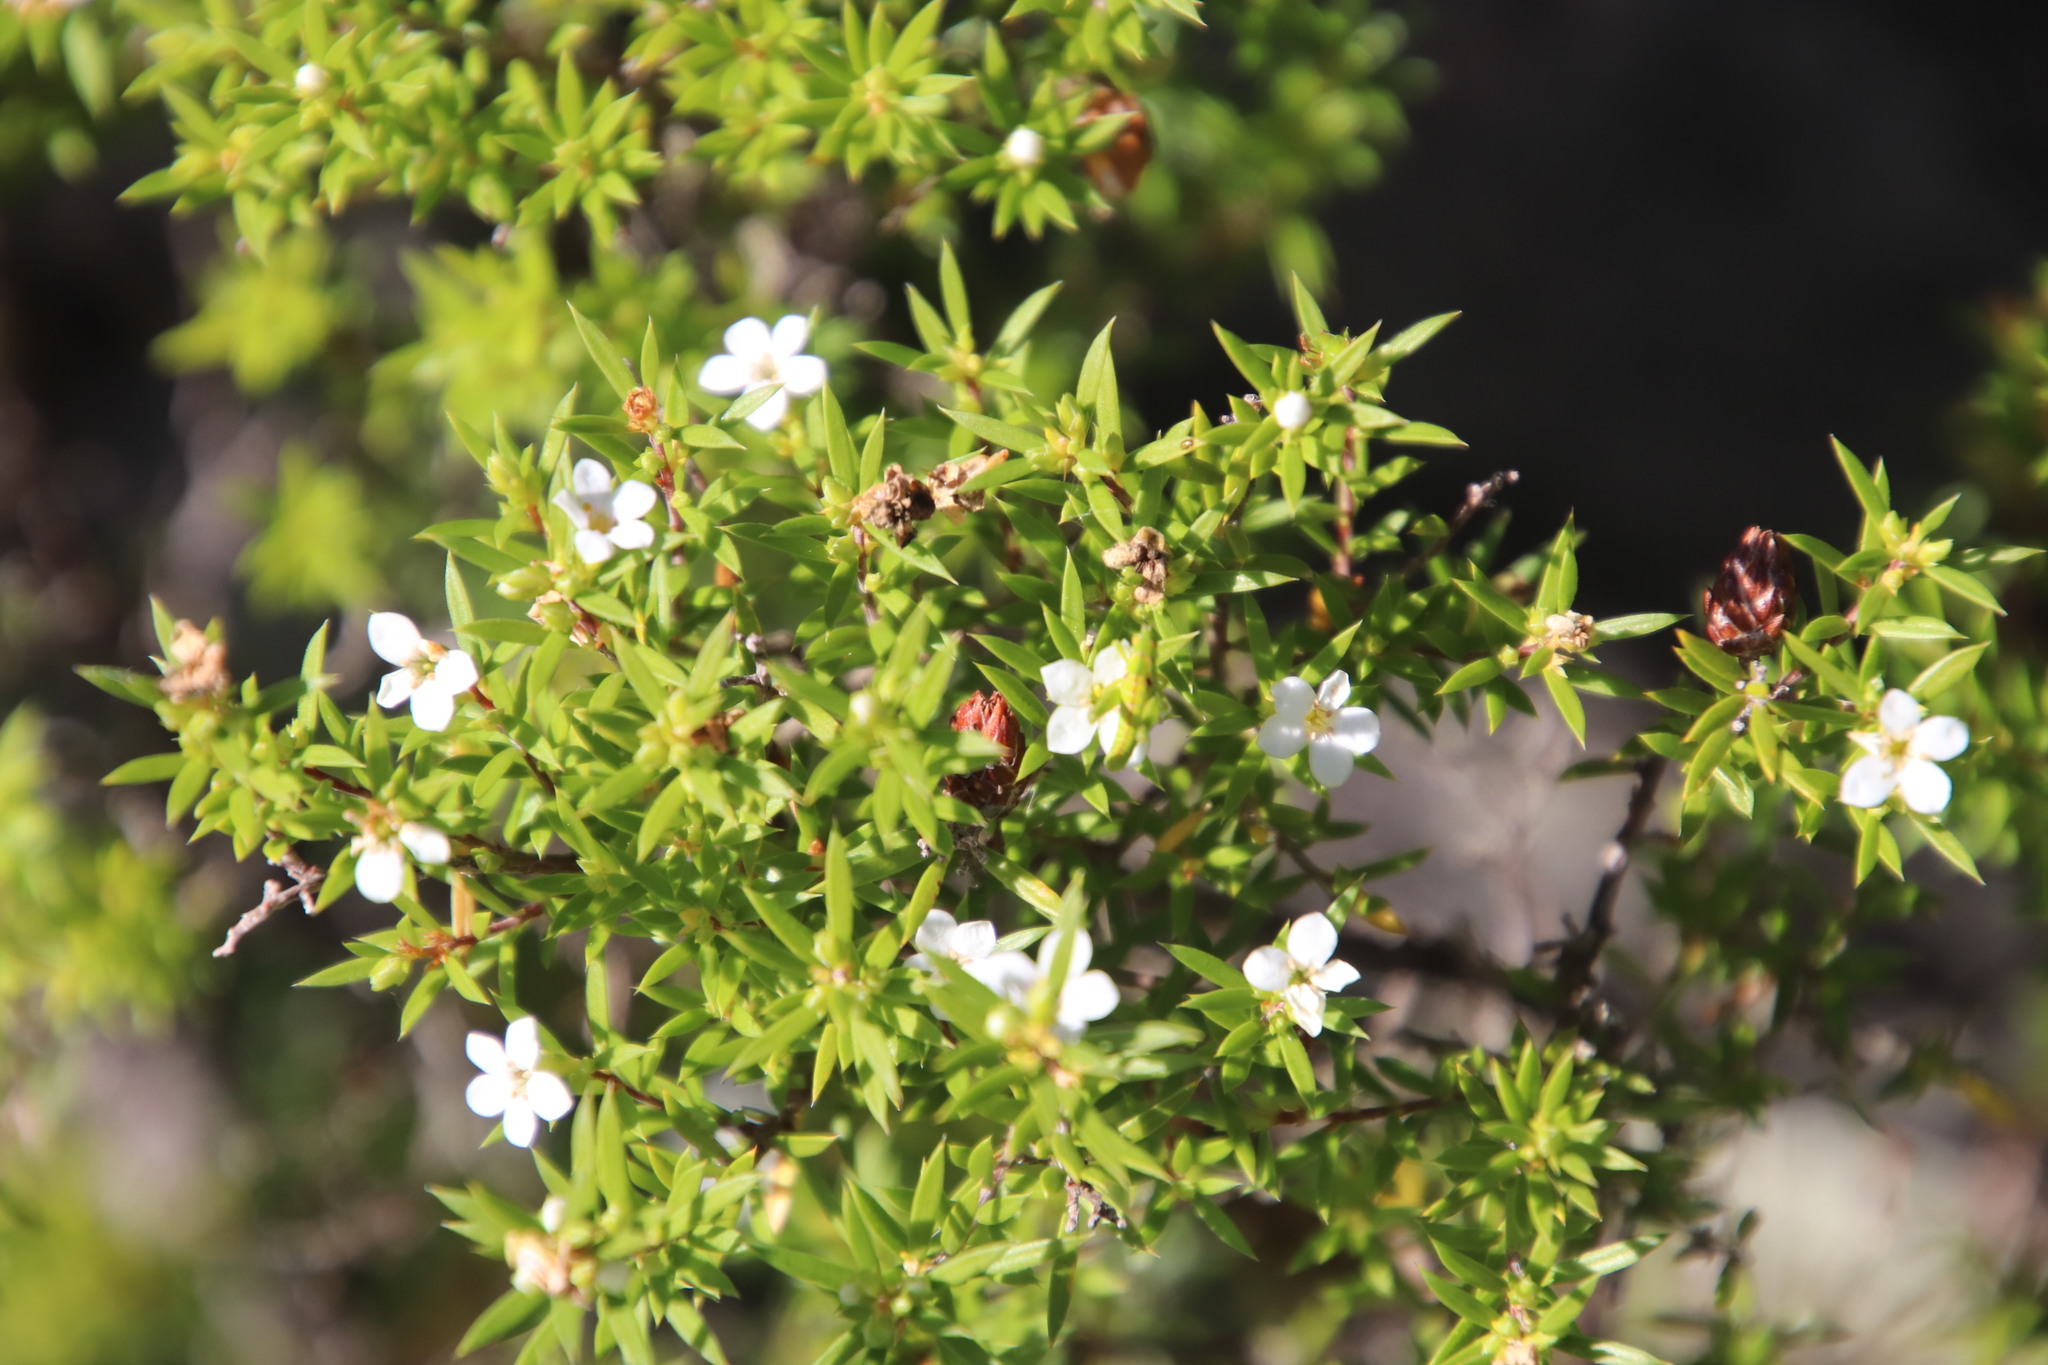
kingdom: Plantae
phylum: Tracheophyta
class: Magnoliopsida
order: Sapindales
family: Rutaceae
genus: Coleonema
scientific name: Coleonema album
